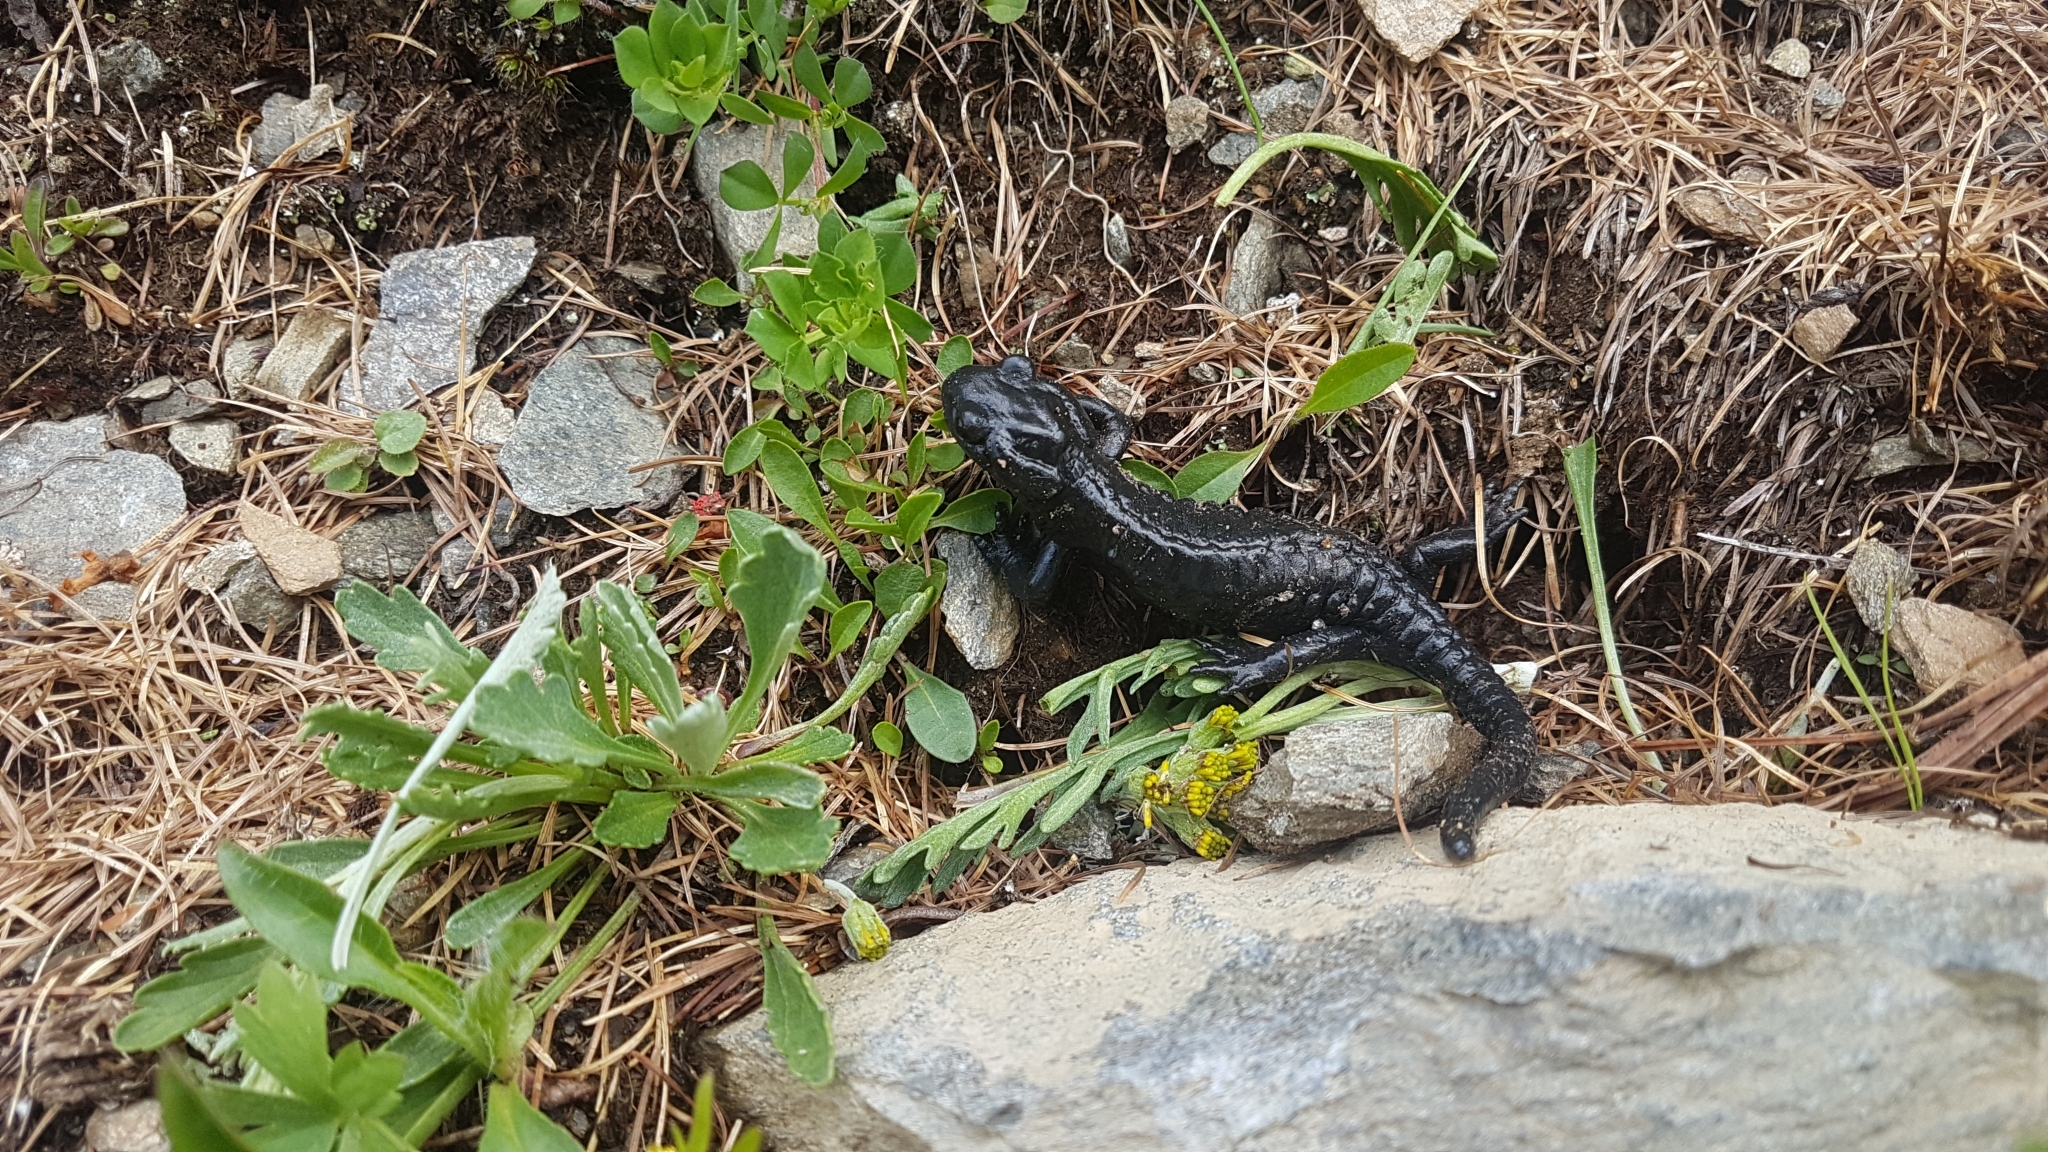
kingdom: Animalia
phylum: Chordata
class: Amphibia
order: Caudata
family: Salamandridae
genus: Salamandra
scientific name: Salamandra atra
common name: Alpine salamander
